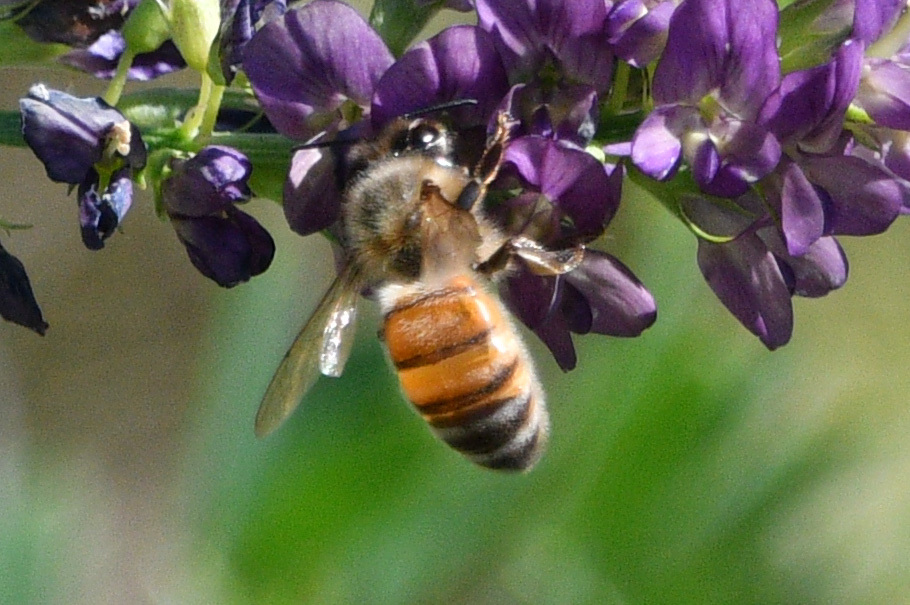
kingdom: Animalia
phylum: Arthropoda
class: Insecta
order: Hymenoptera
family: Apidae
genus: Apis
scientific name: Apis mellifera
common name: Honey bee
